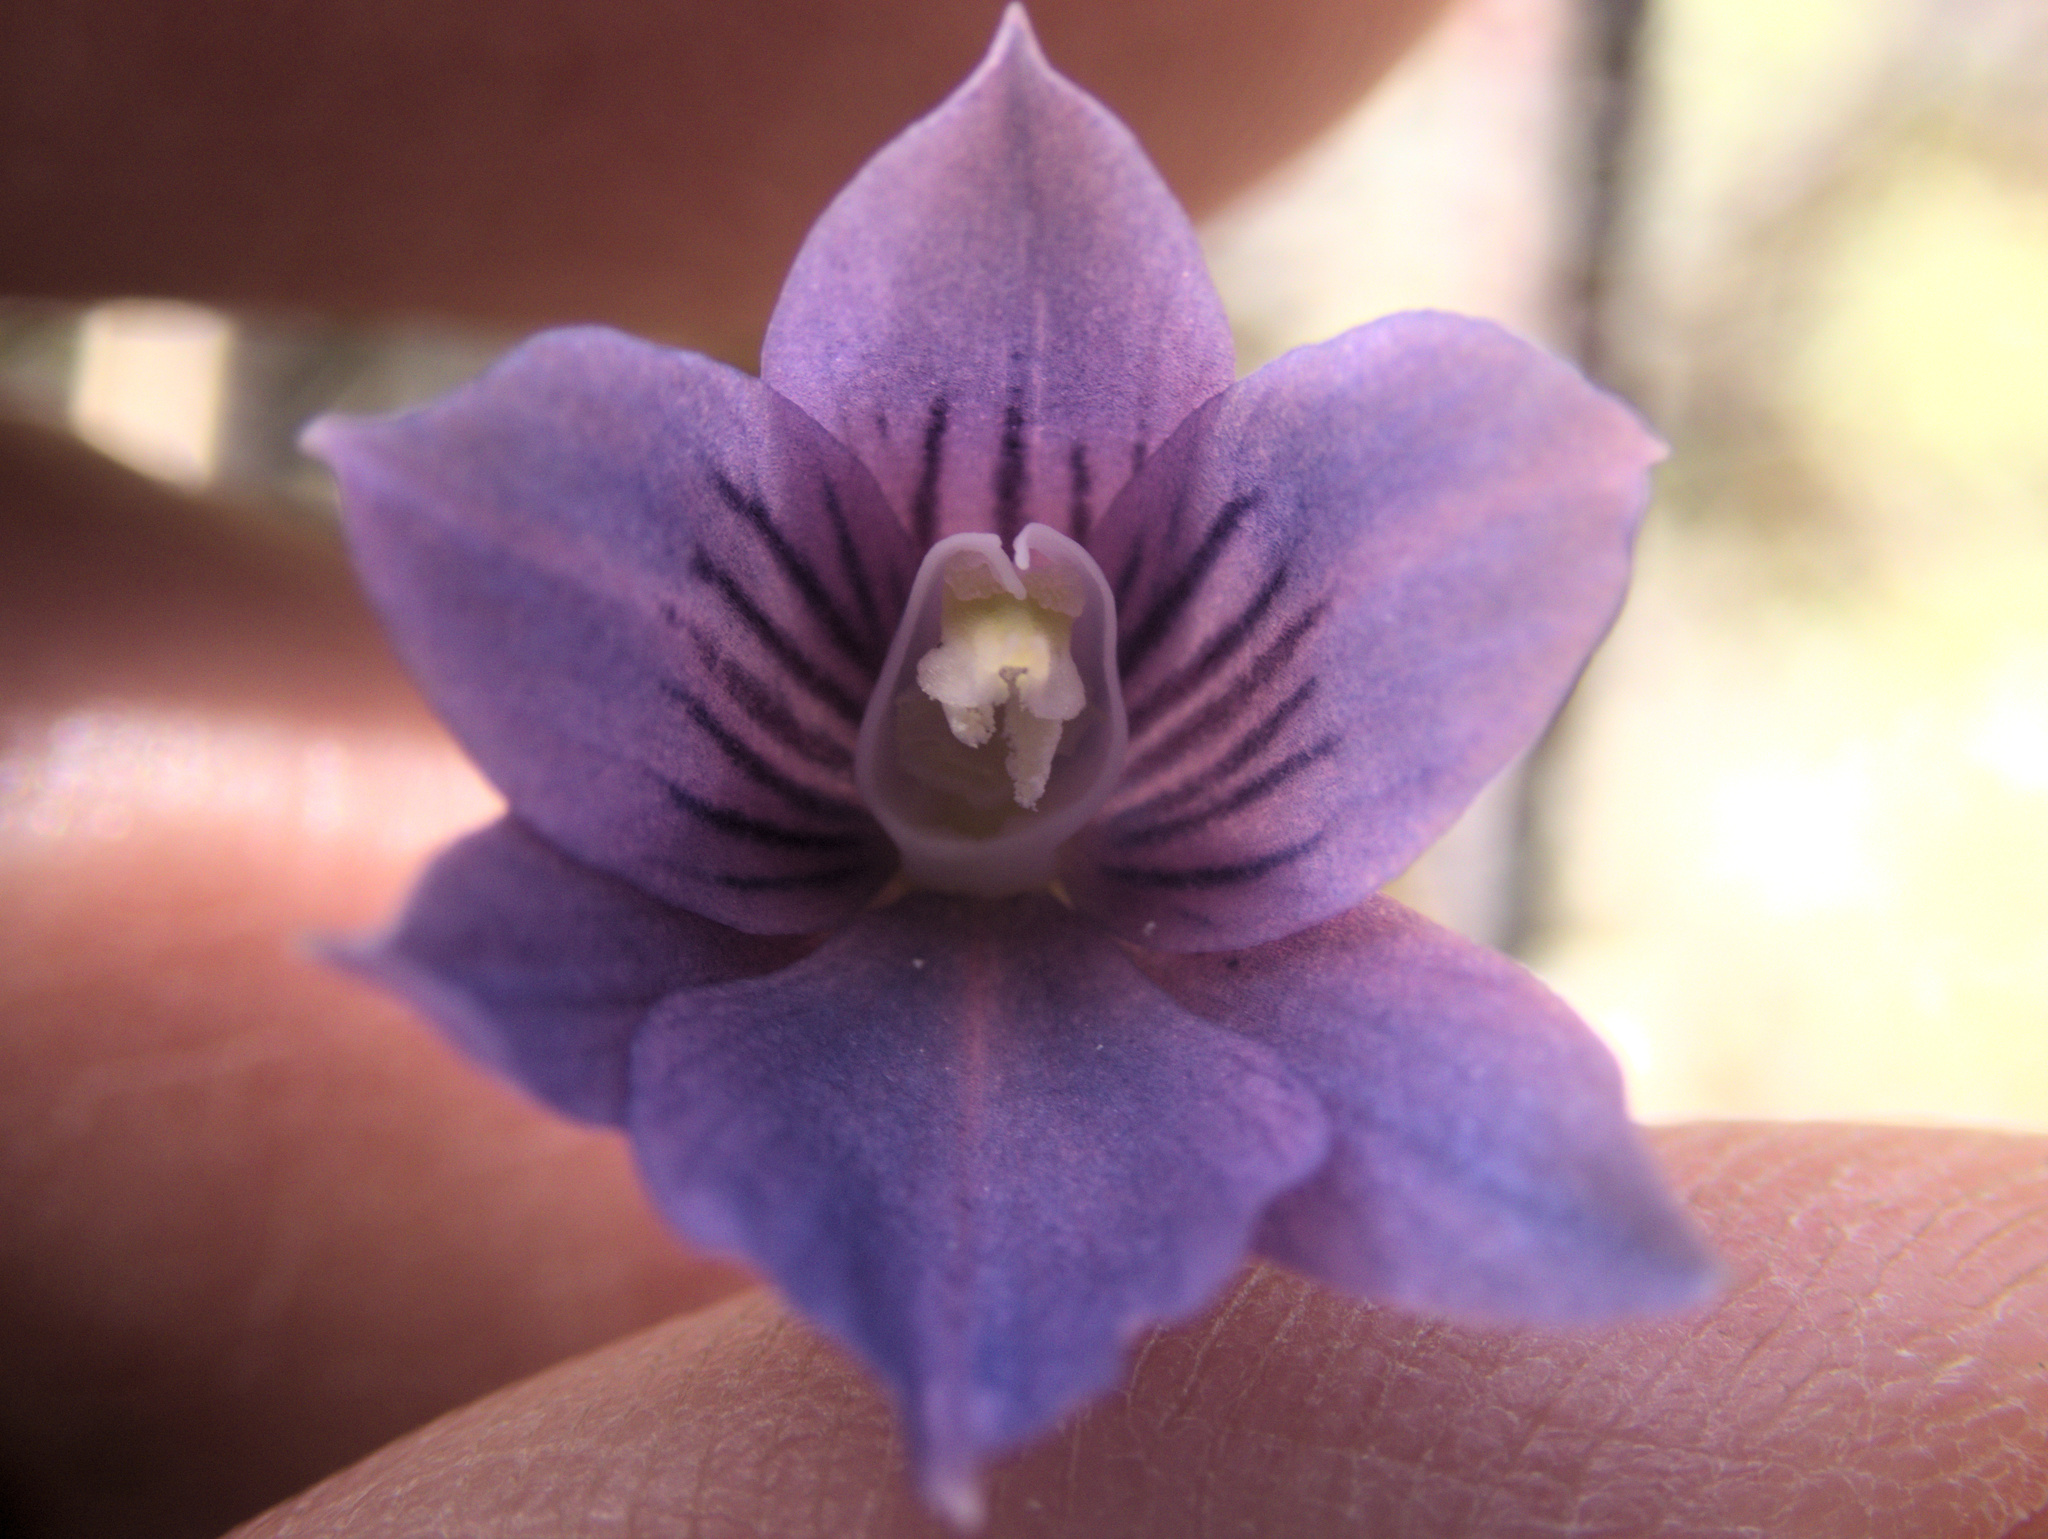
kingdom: Plantae
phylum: Tracheophyta
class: Liliopsida
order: Asparagales
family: Orchidaceae
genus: Thelymitra
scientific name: Thelymitra cyanea
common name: Blue sun-orchid
